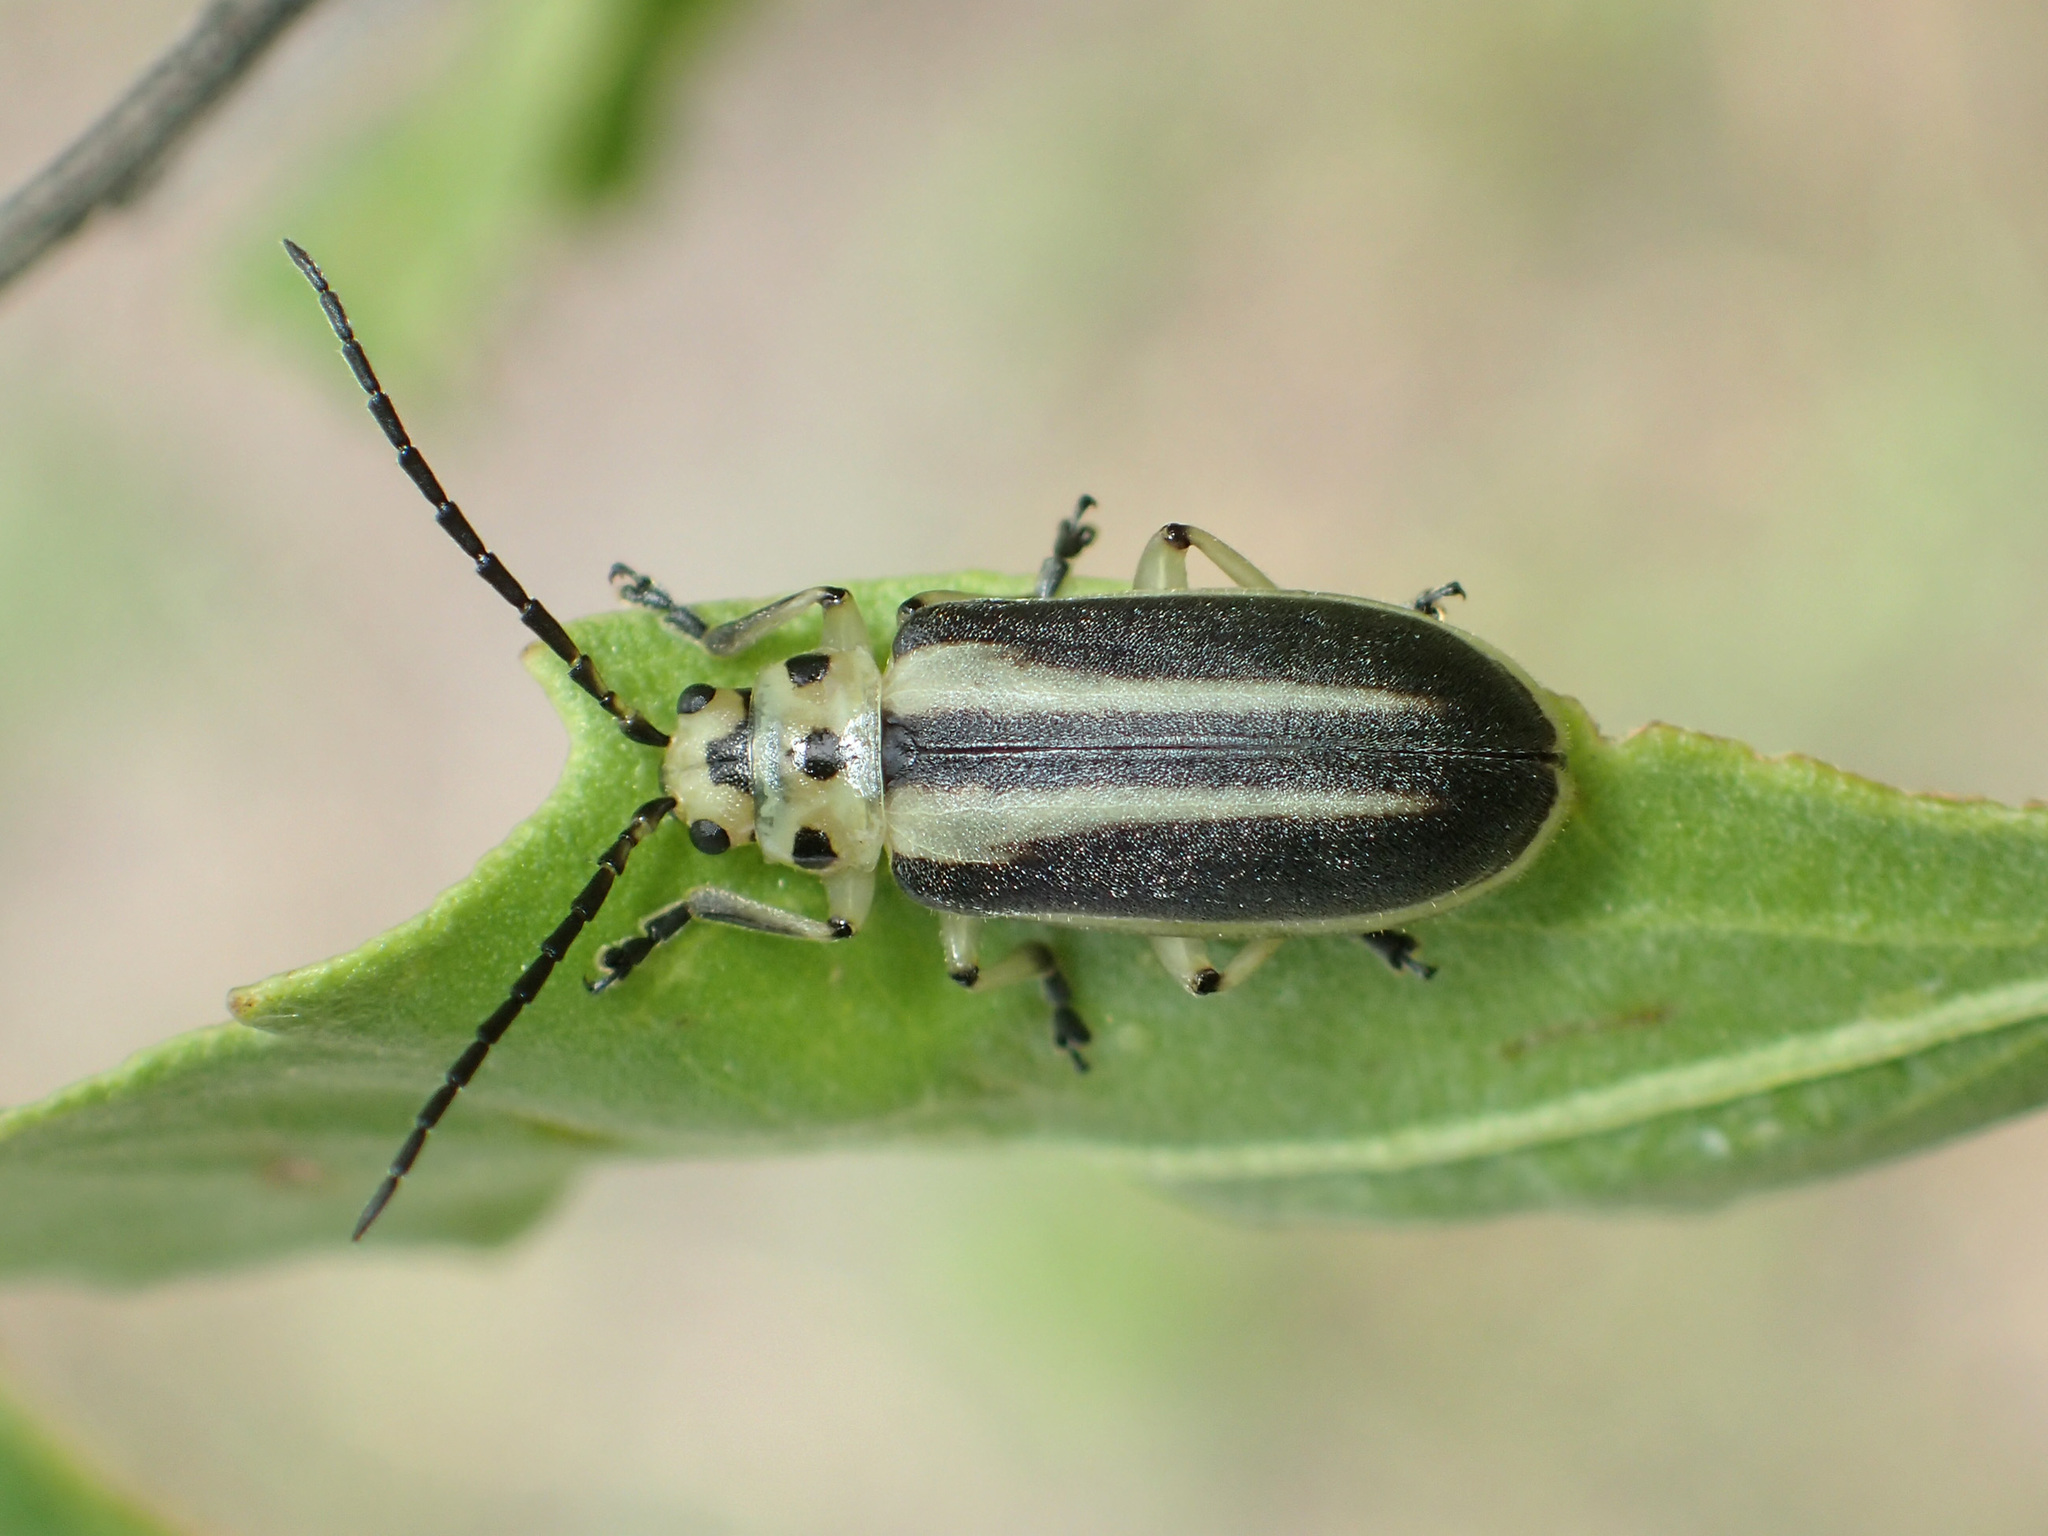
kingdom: Animalia
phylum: Arthropoda
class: Insecta
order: Coleoptera
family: Chrysomelidae
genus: Trirhabda
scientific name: Trirhabda bacharidis
